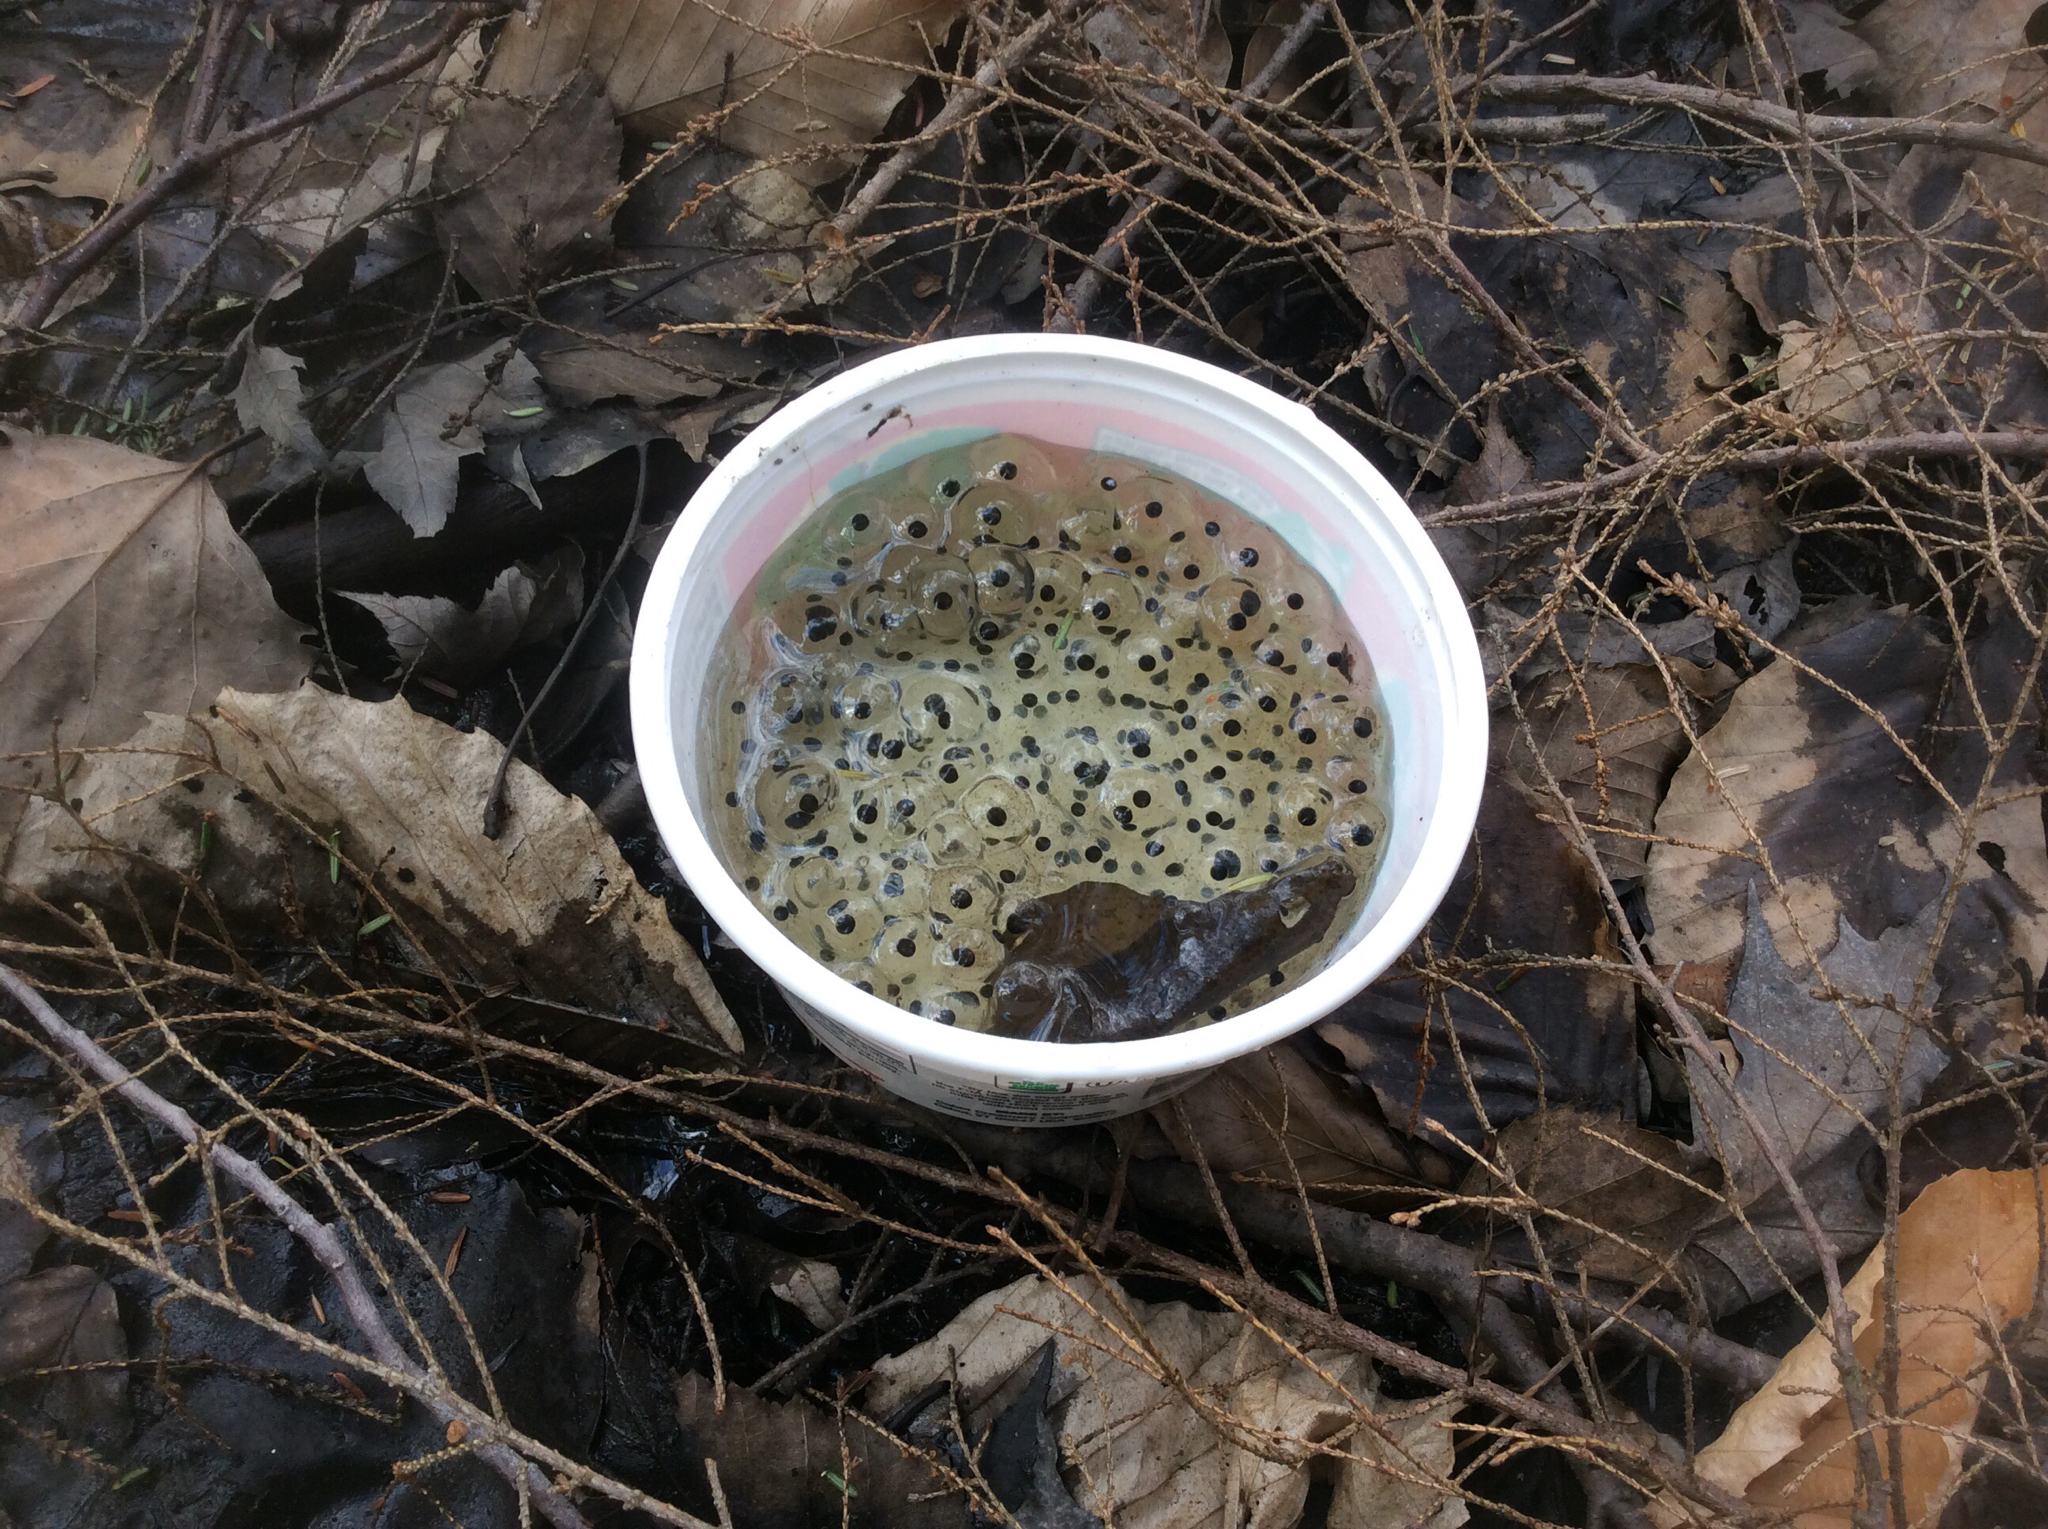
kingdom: Animalia
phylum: Chordata
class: Amphibia
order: Anura
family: Ranidae
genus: Lithobates
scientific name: Lithobates sylvaticus
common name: Wood frog
